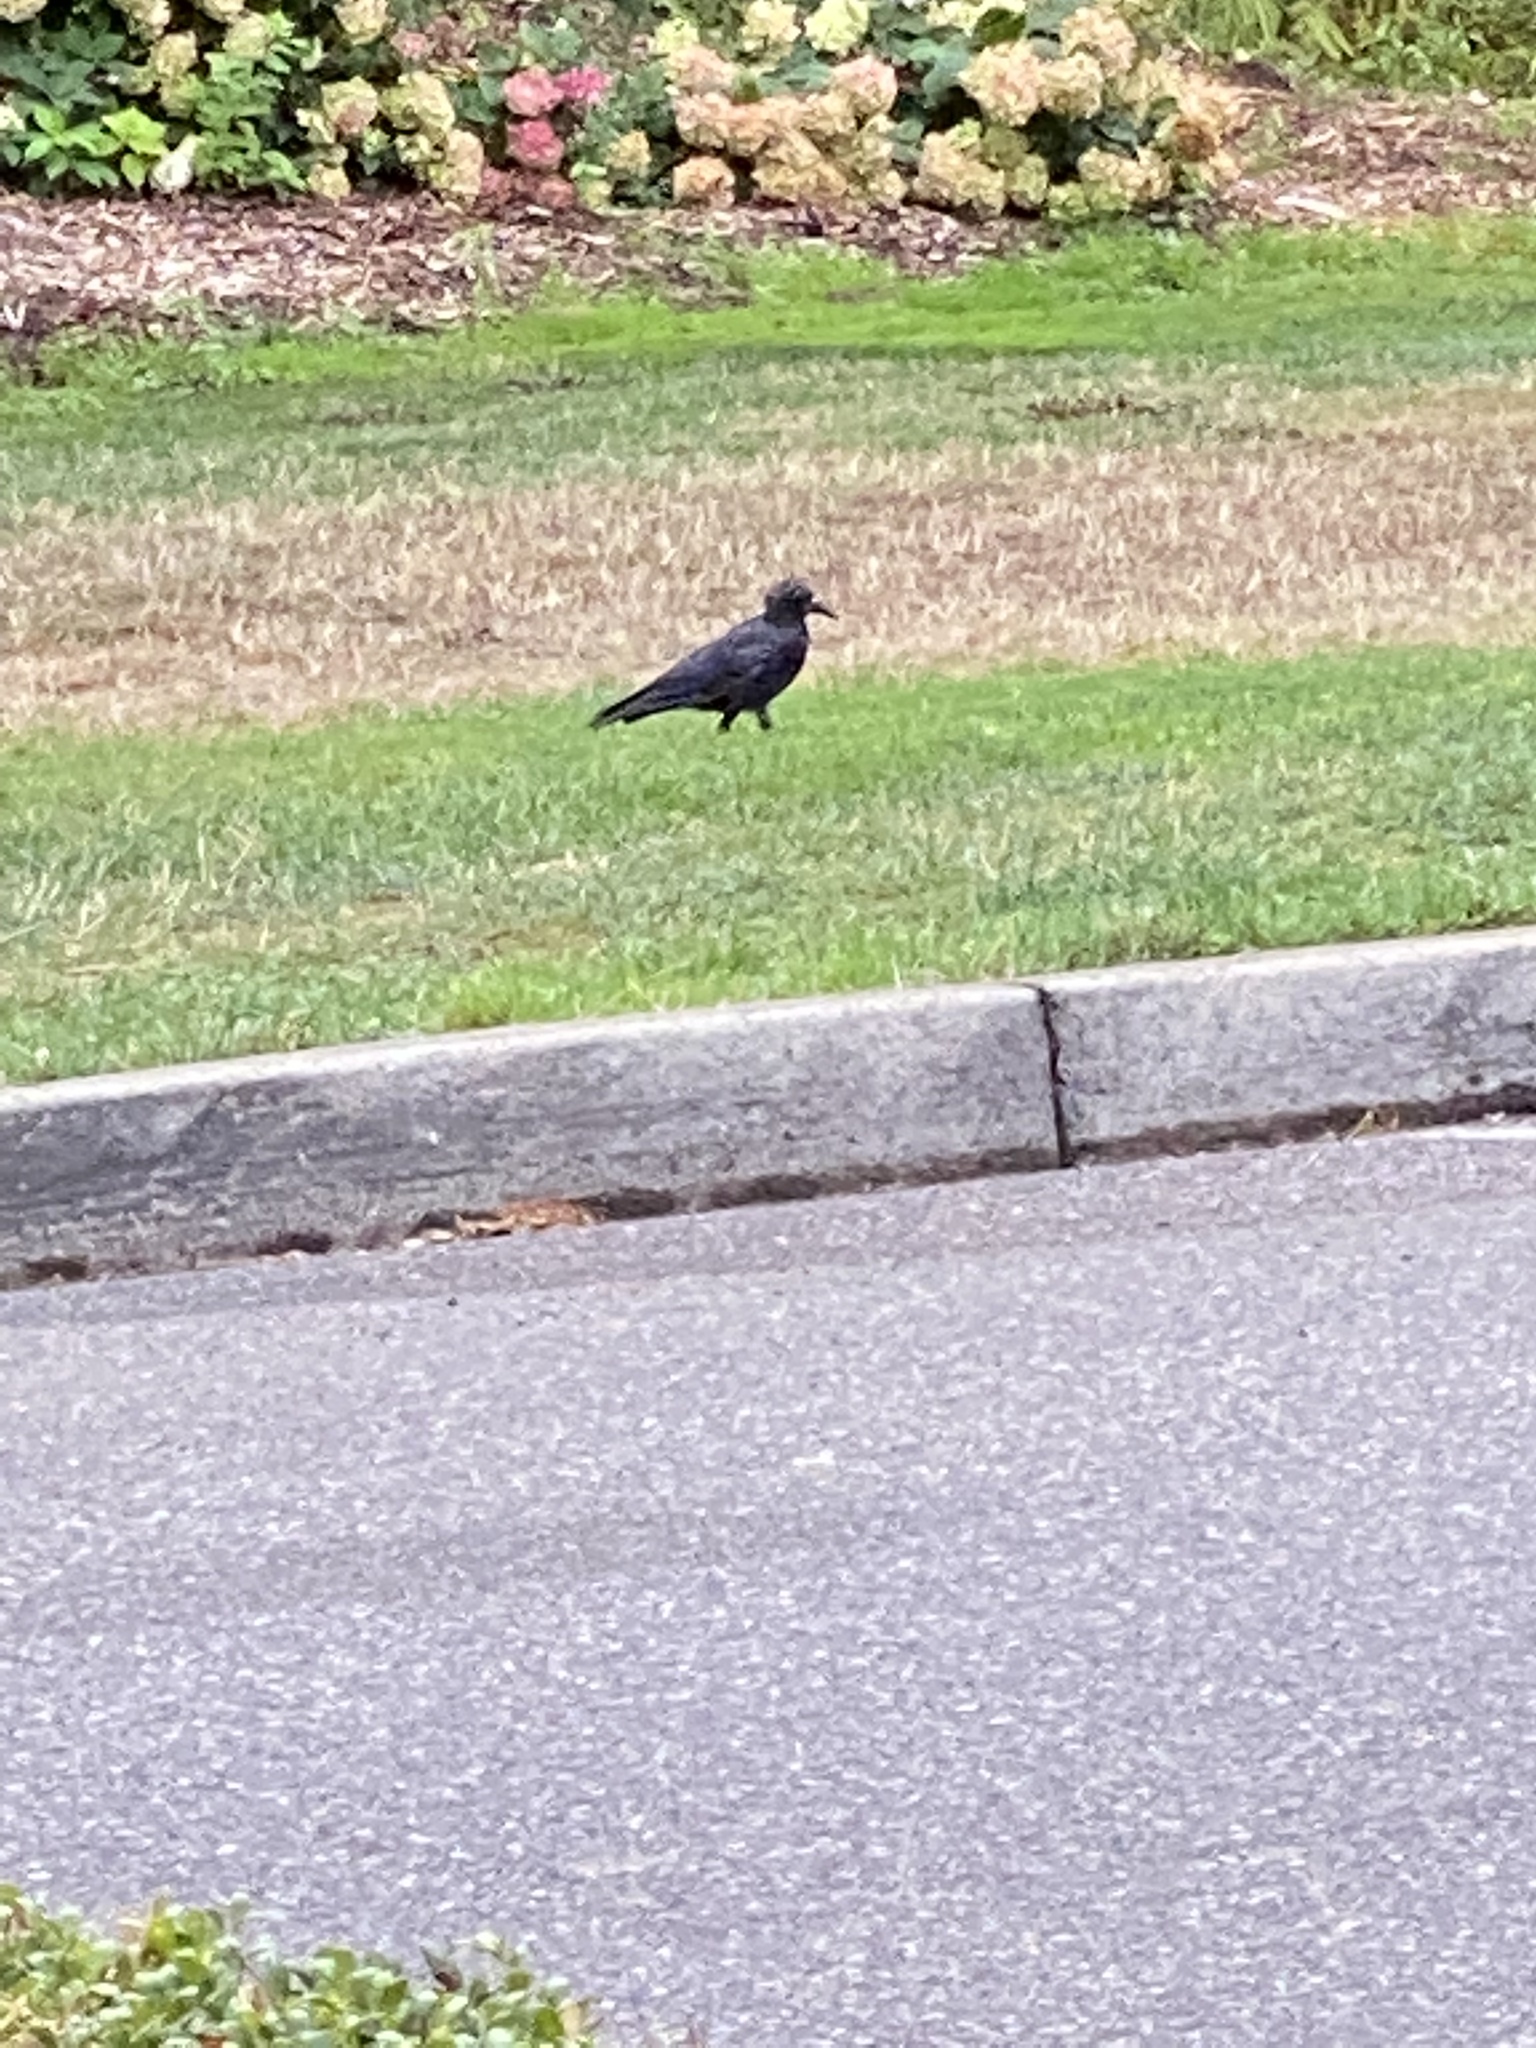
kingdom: Animalia
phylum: Chordata
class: Aves
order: Passeriformes
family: Corvidae
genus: Corvus
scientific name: Corvus brachyrhynchos
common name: American crow
